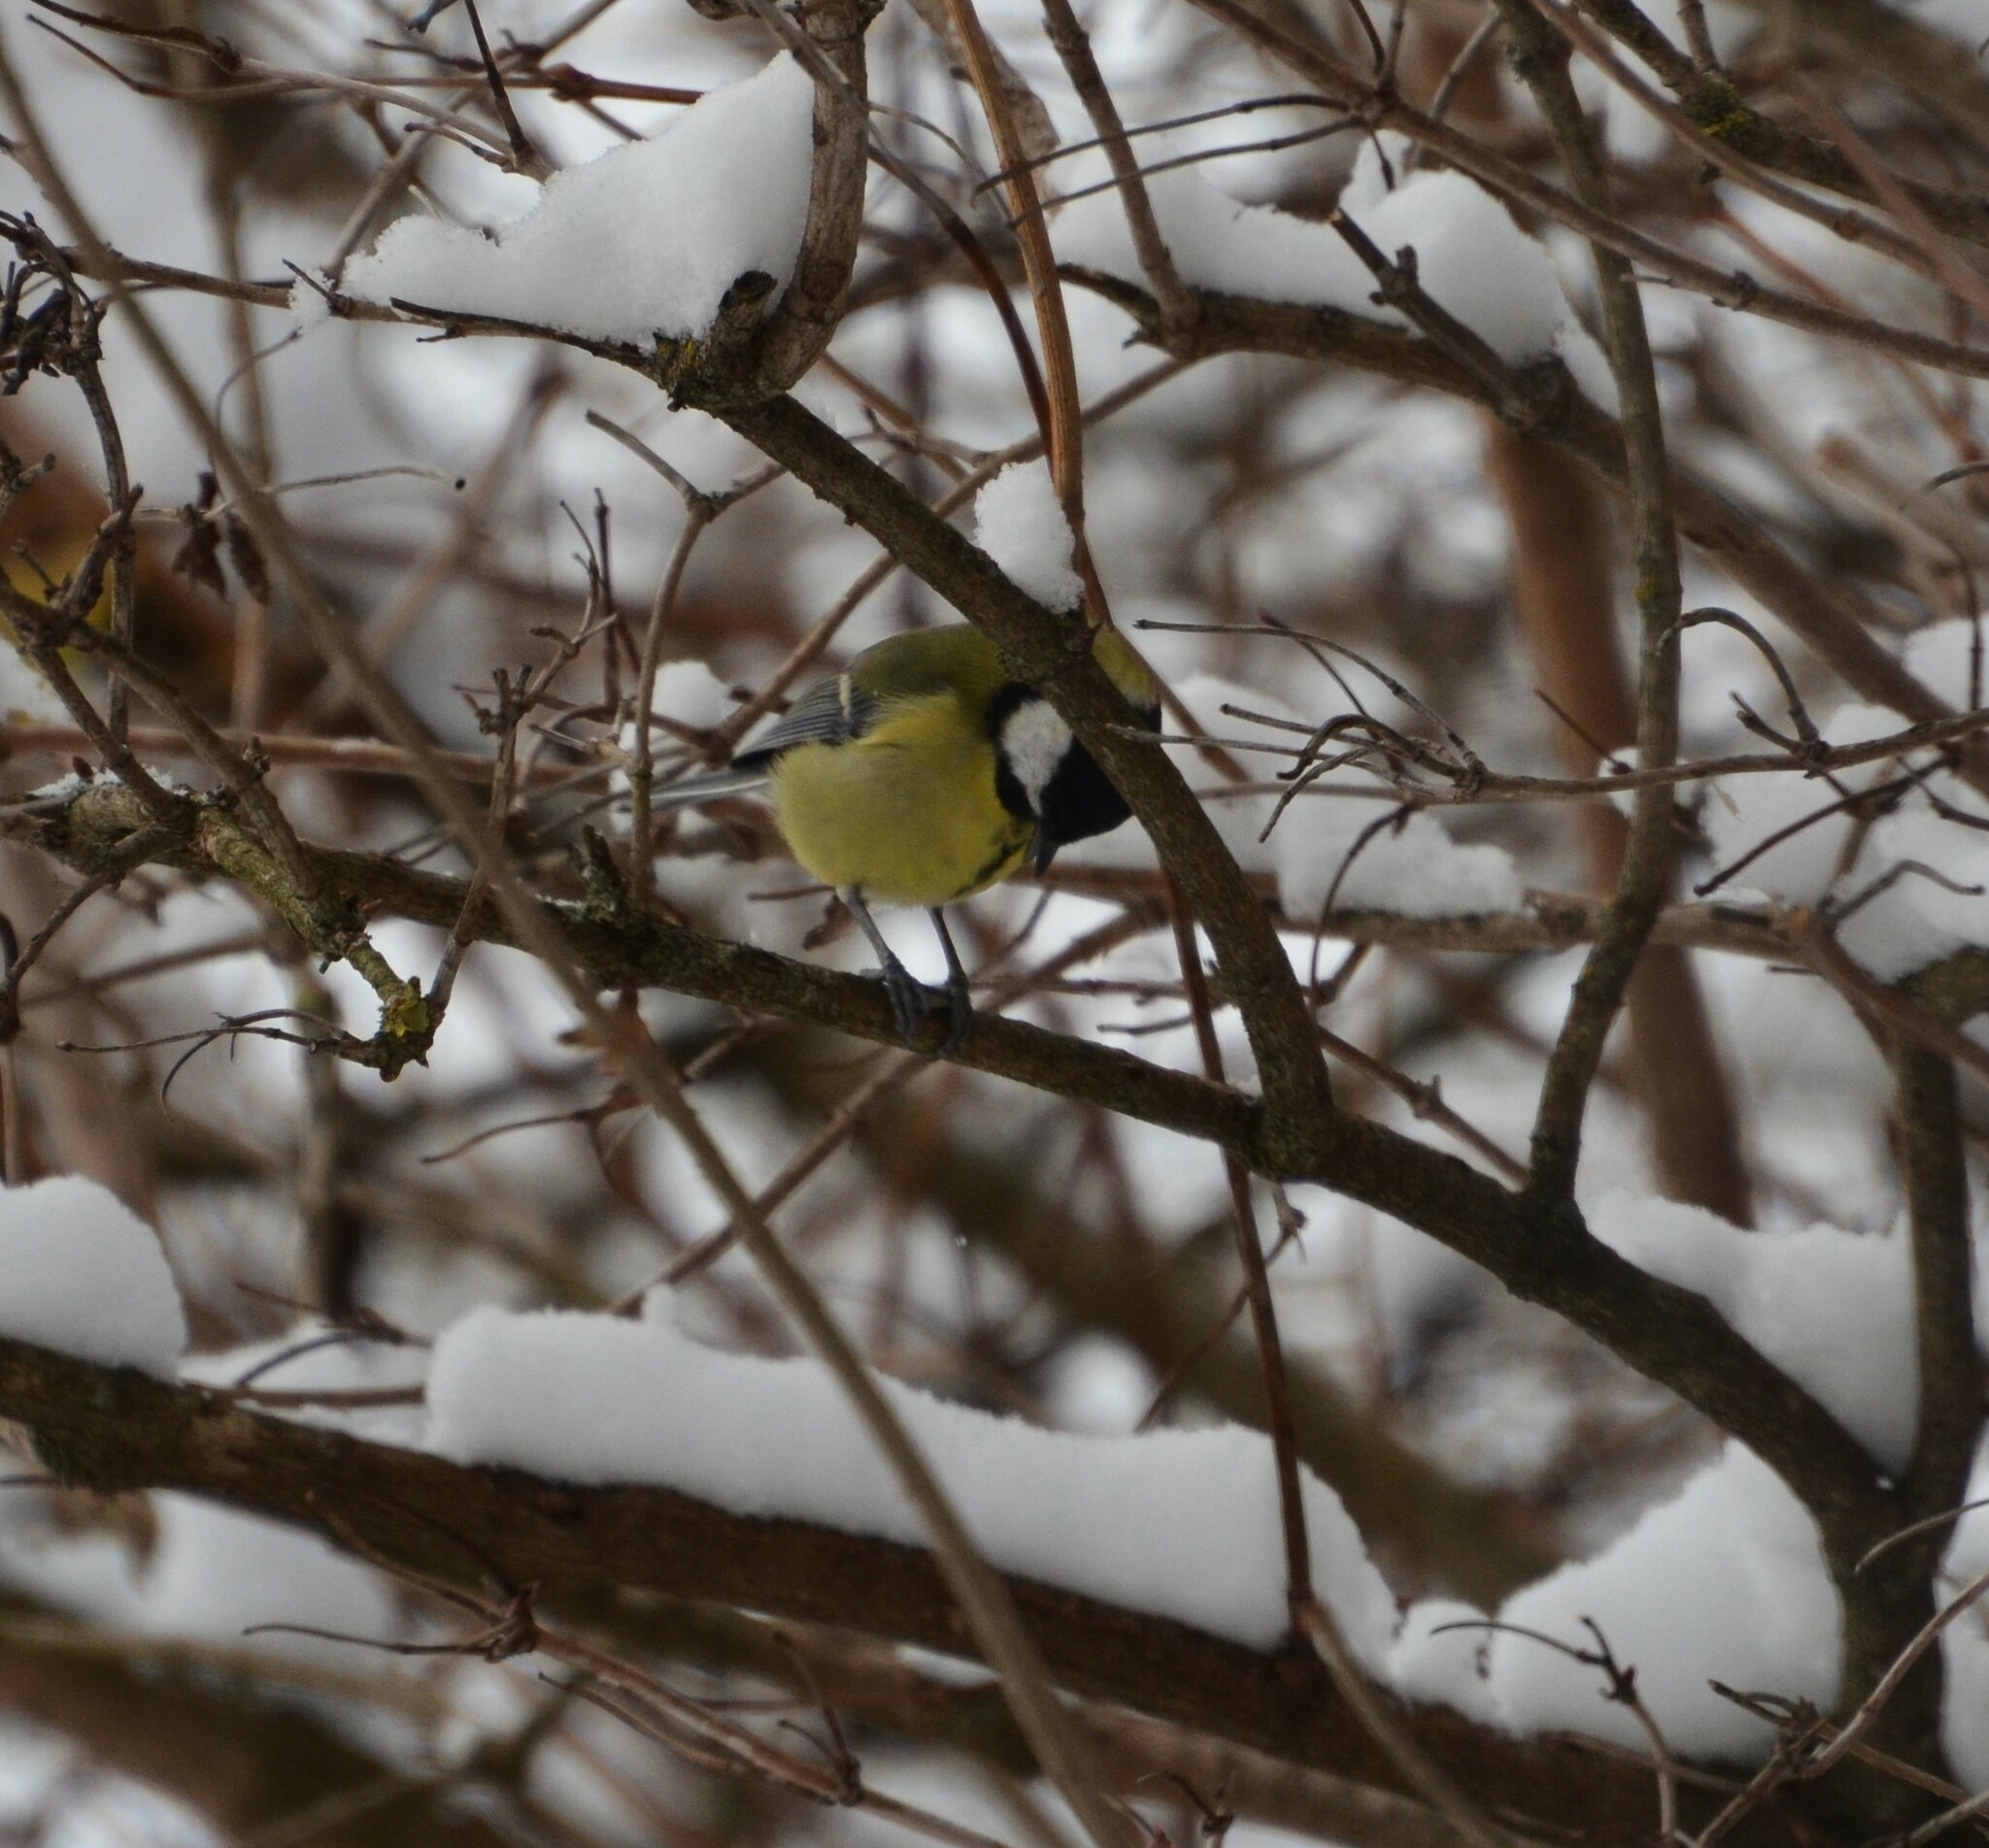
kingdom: Animalia
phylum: Chordata
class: Aves
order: Passeriformes
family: Paridae
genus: Parus
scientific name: Parus major
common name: Great tit
